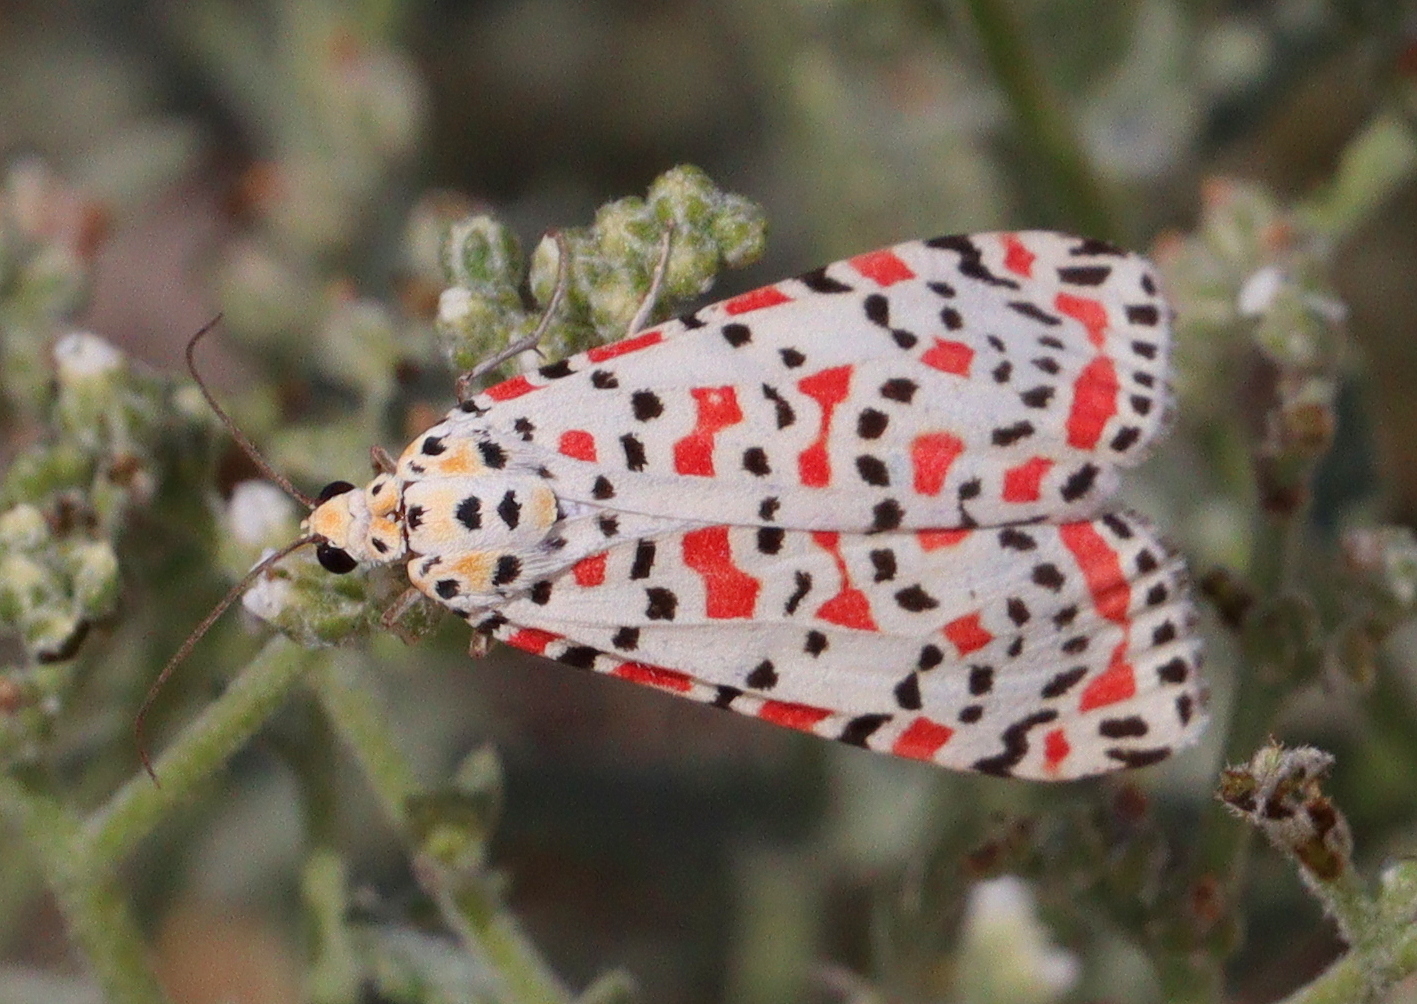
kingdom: Animalia
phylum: Arthropoda
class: Insecta
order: Lepidoptera
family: Erebidae
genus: Utetheisa
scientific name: Utetheisa pulchella
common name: Crimson speckled
